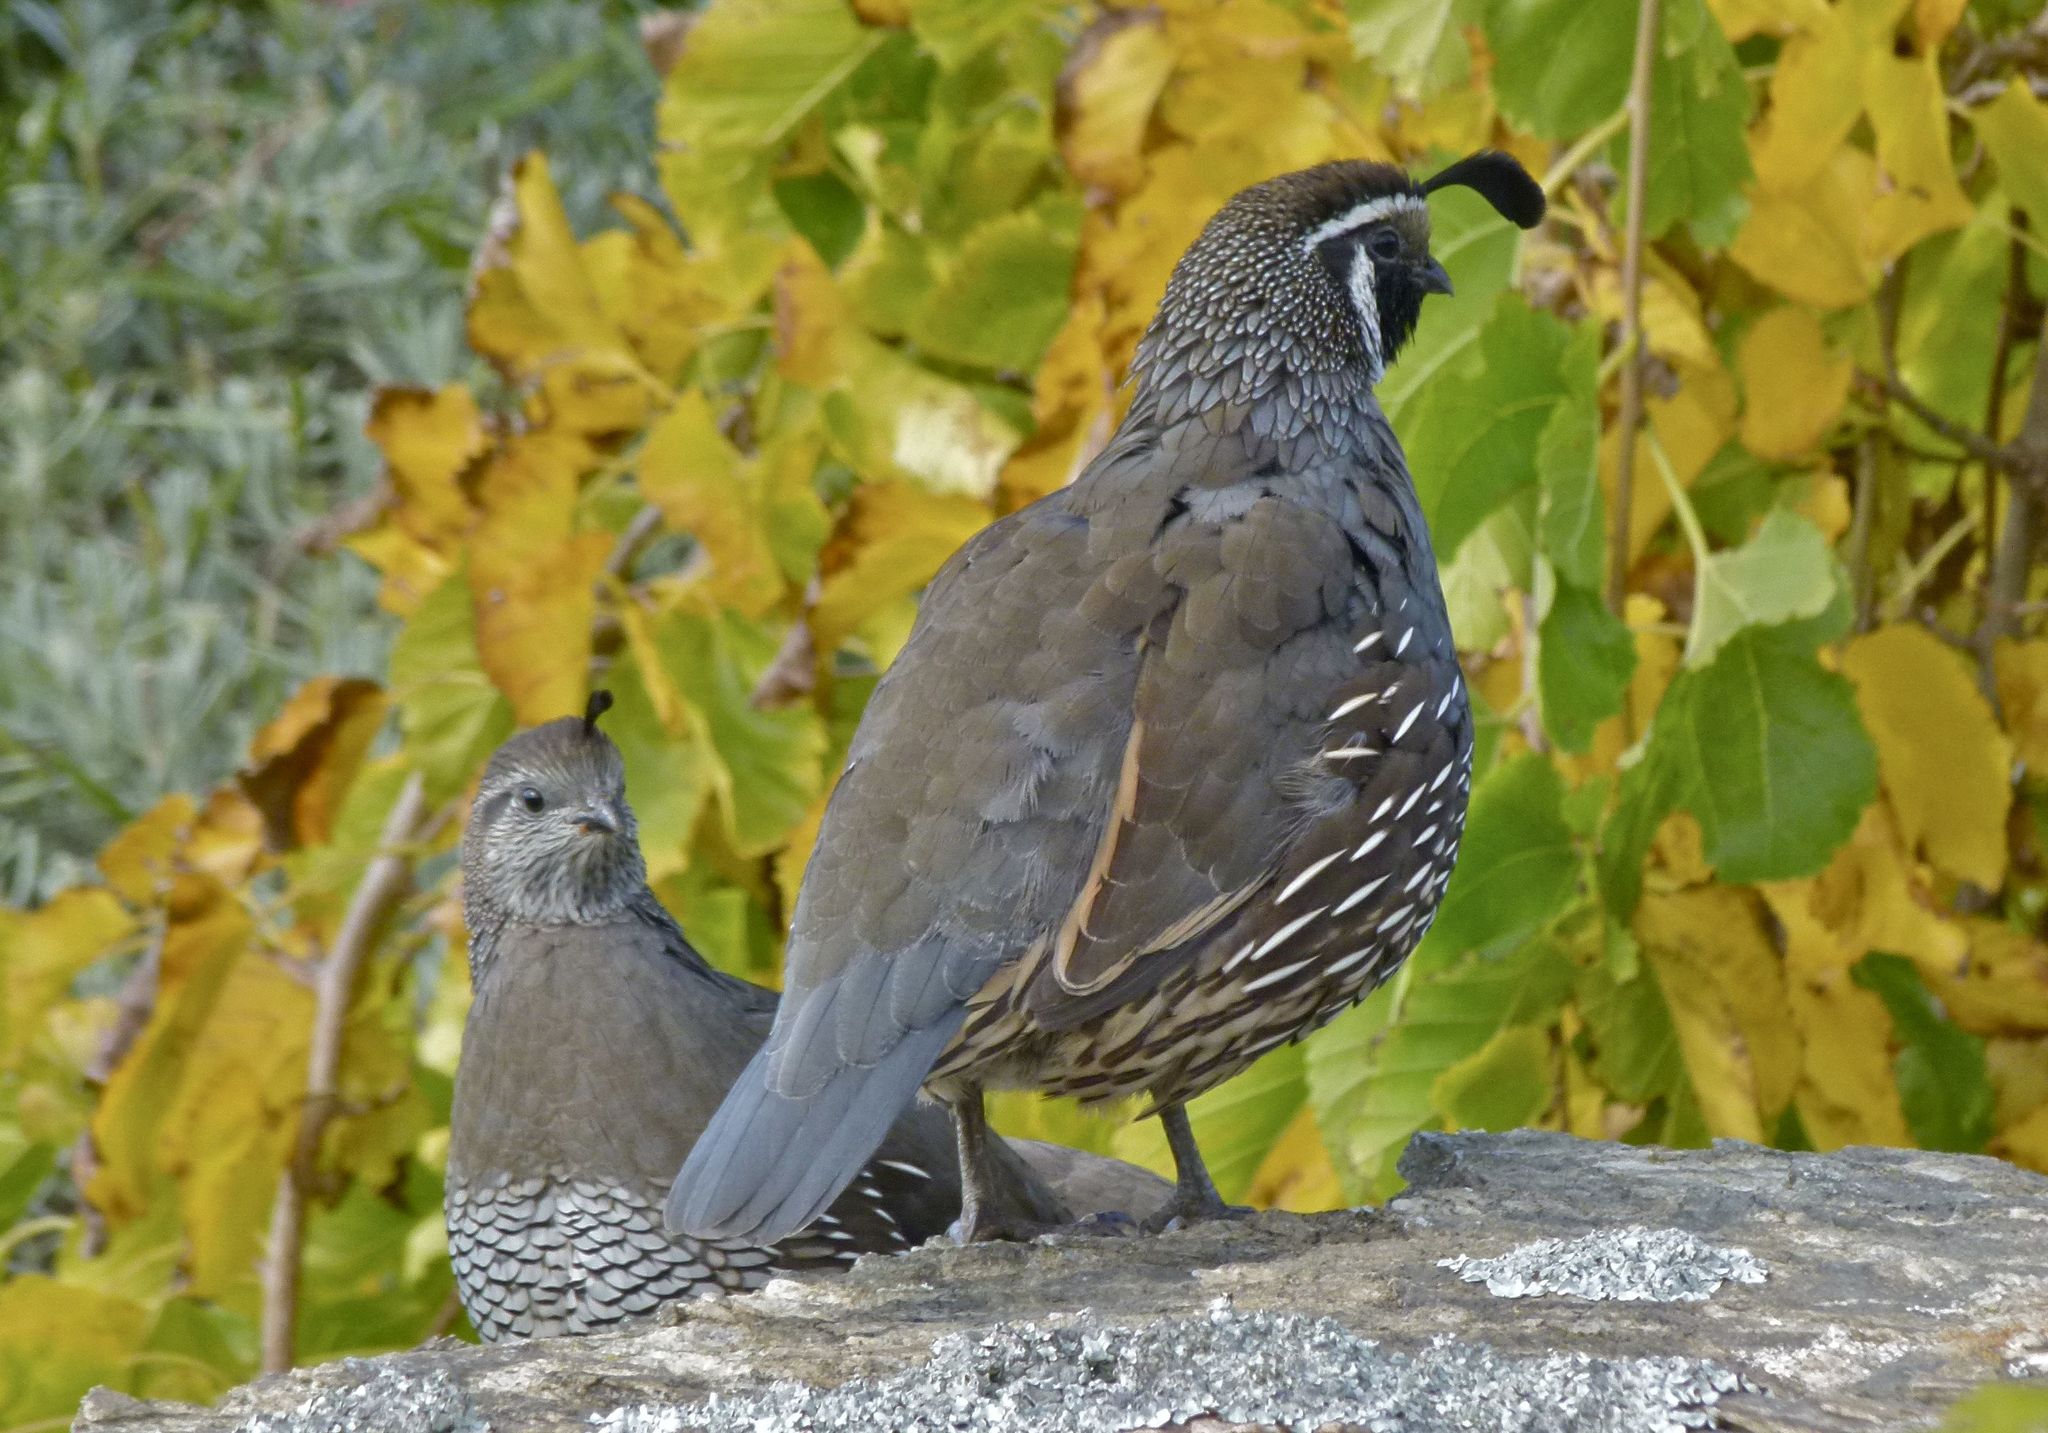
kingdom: Animalia
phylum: Chordata
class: Aves
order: Galliformes
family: Odontophoridae
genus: Callipepla
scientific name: Callipepla californica
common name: California quail
